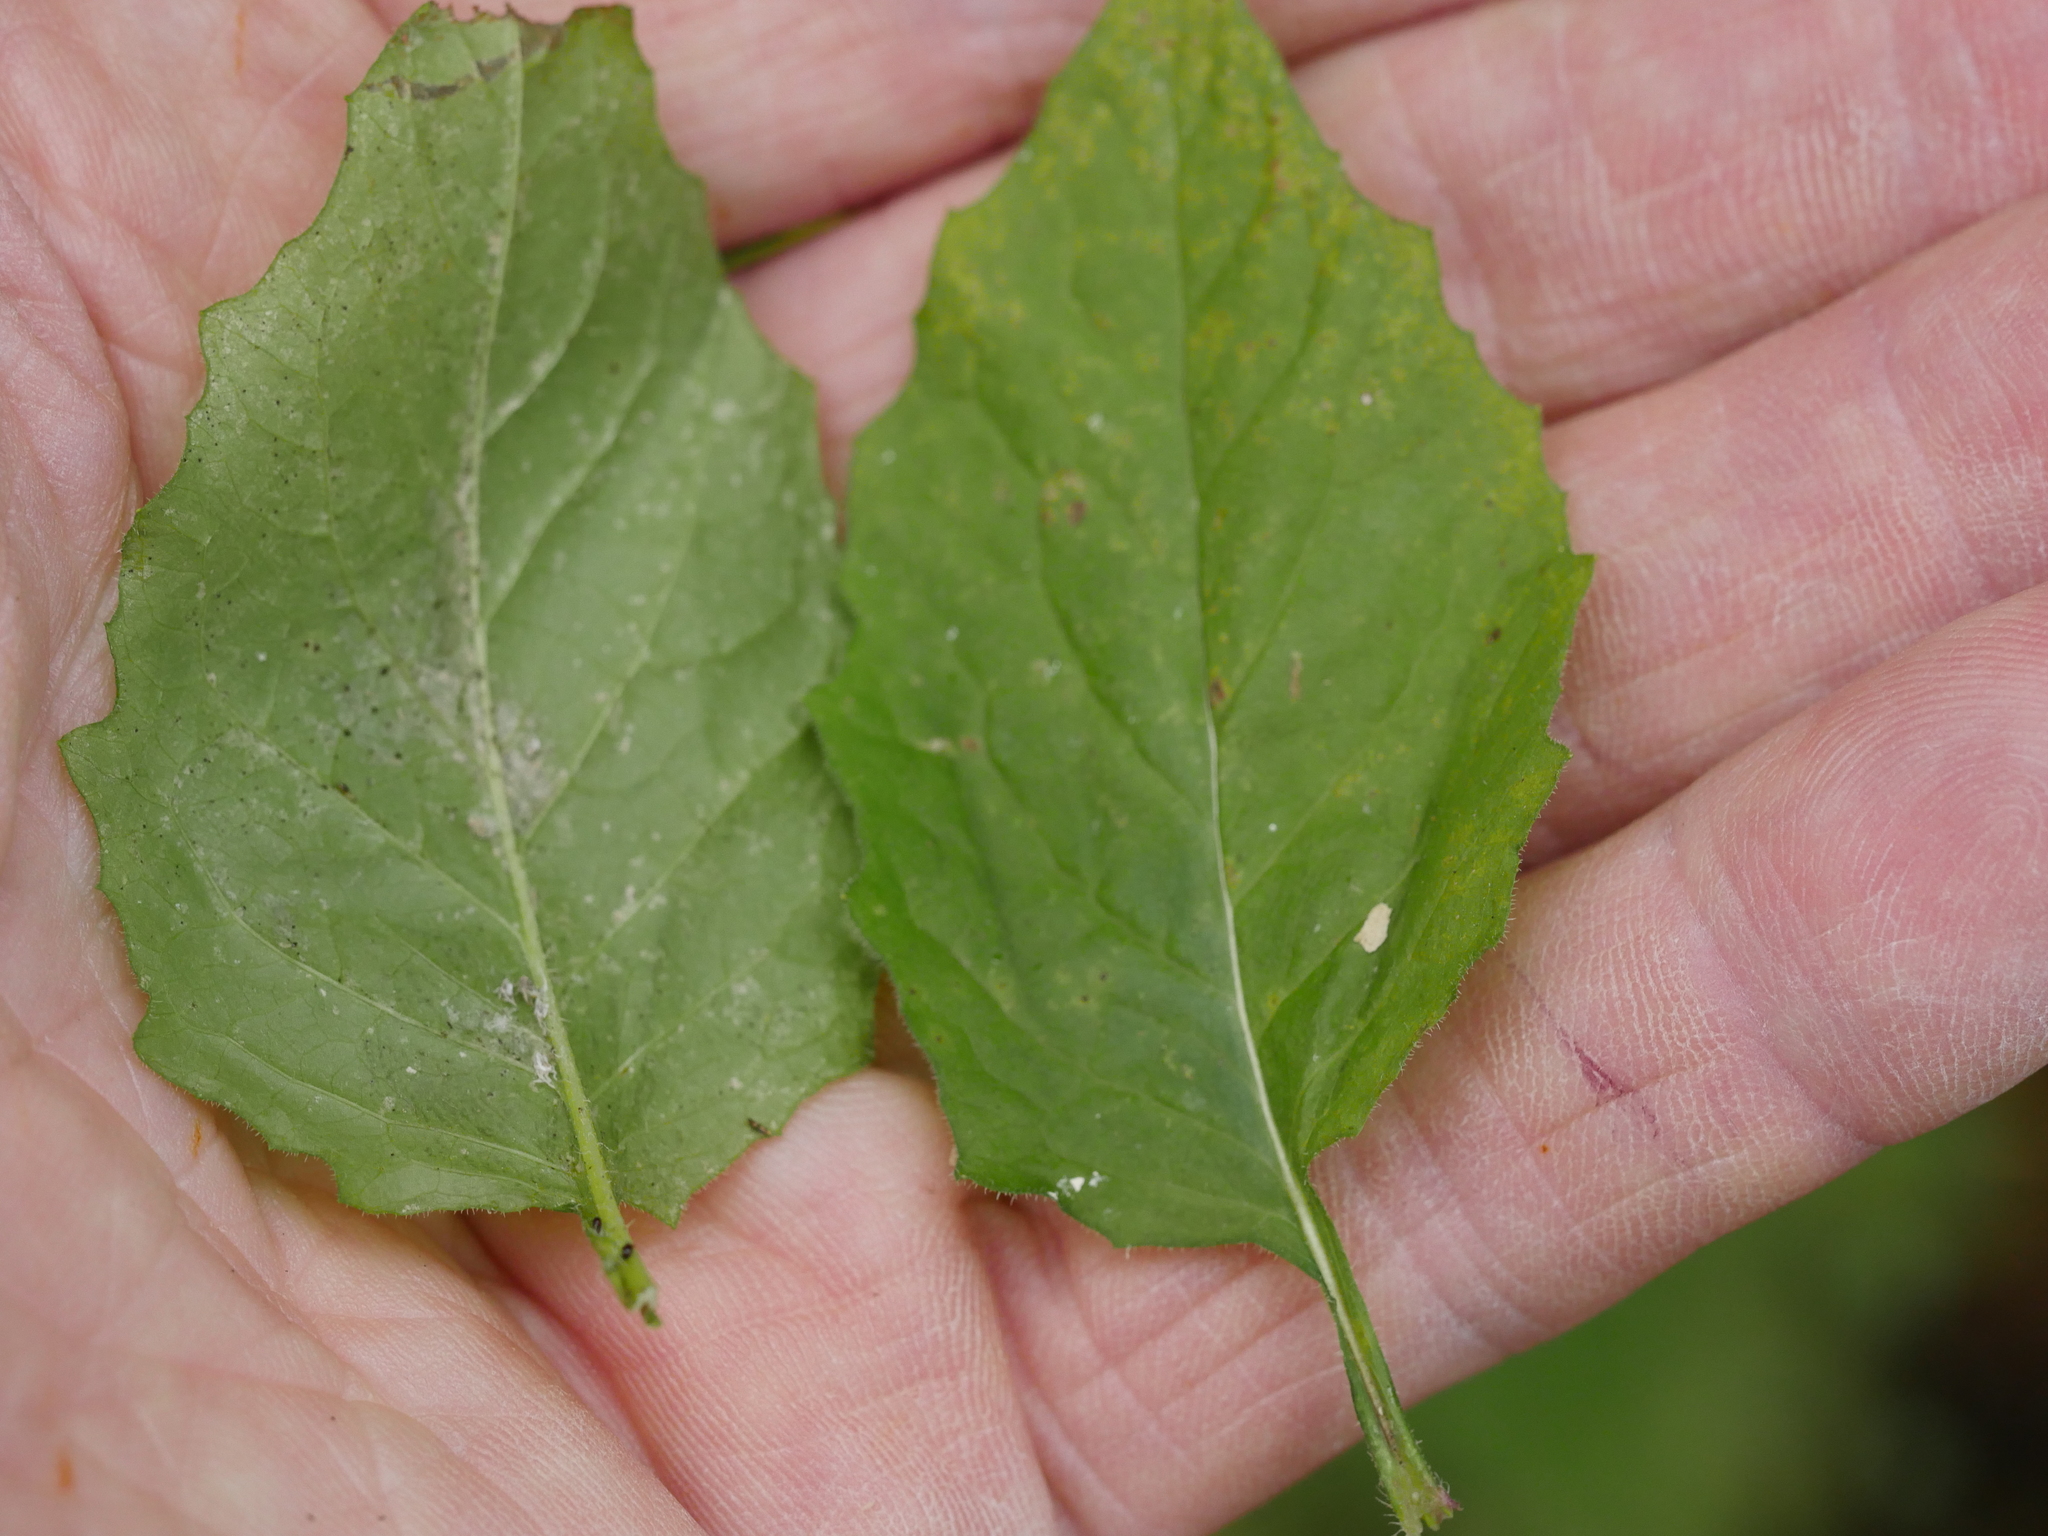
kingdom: Plantae
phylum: Tracheophyta
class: Magnoliopsida
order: Asterales
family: Asteraceae
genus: Lapsana
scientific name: Lapsana communis
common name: Nipplewort
